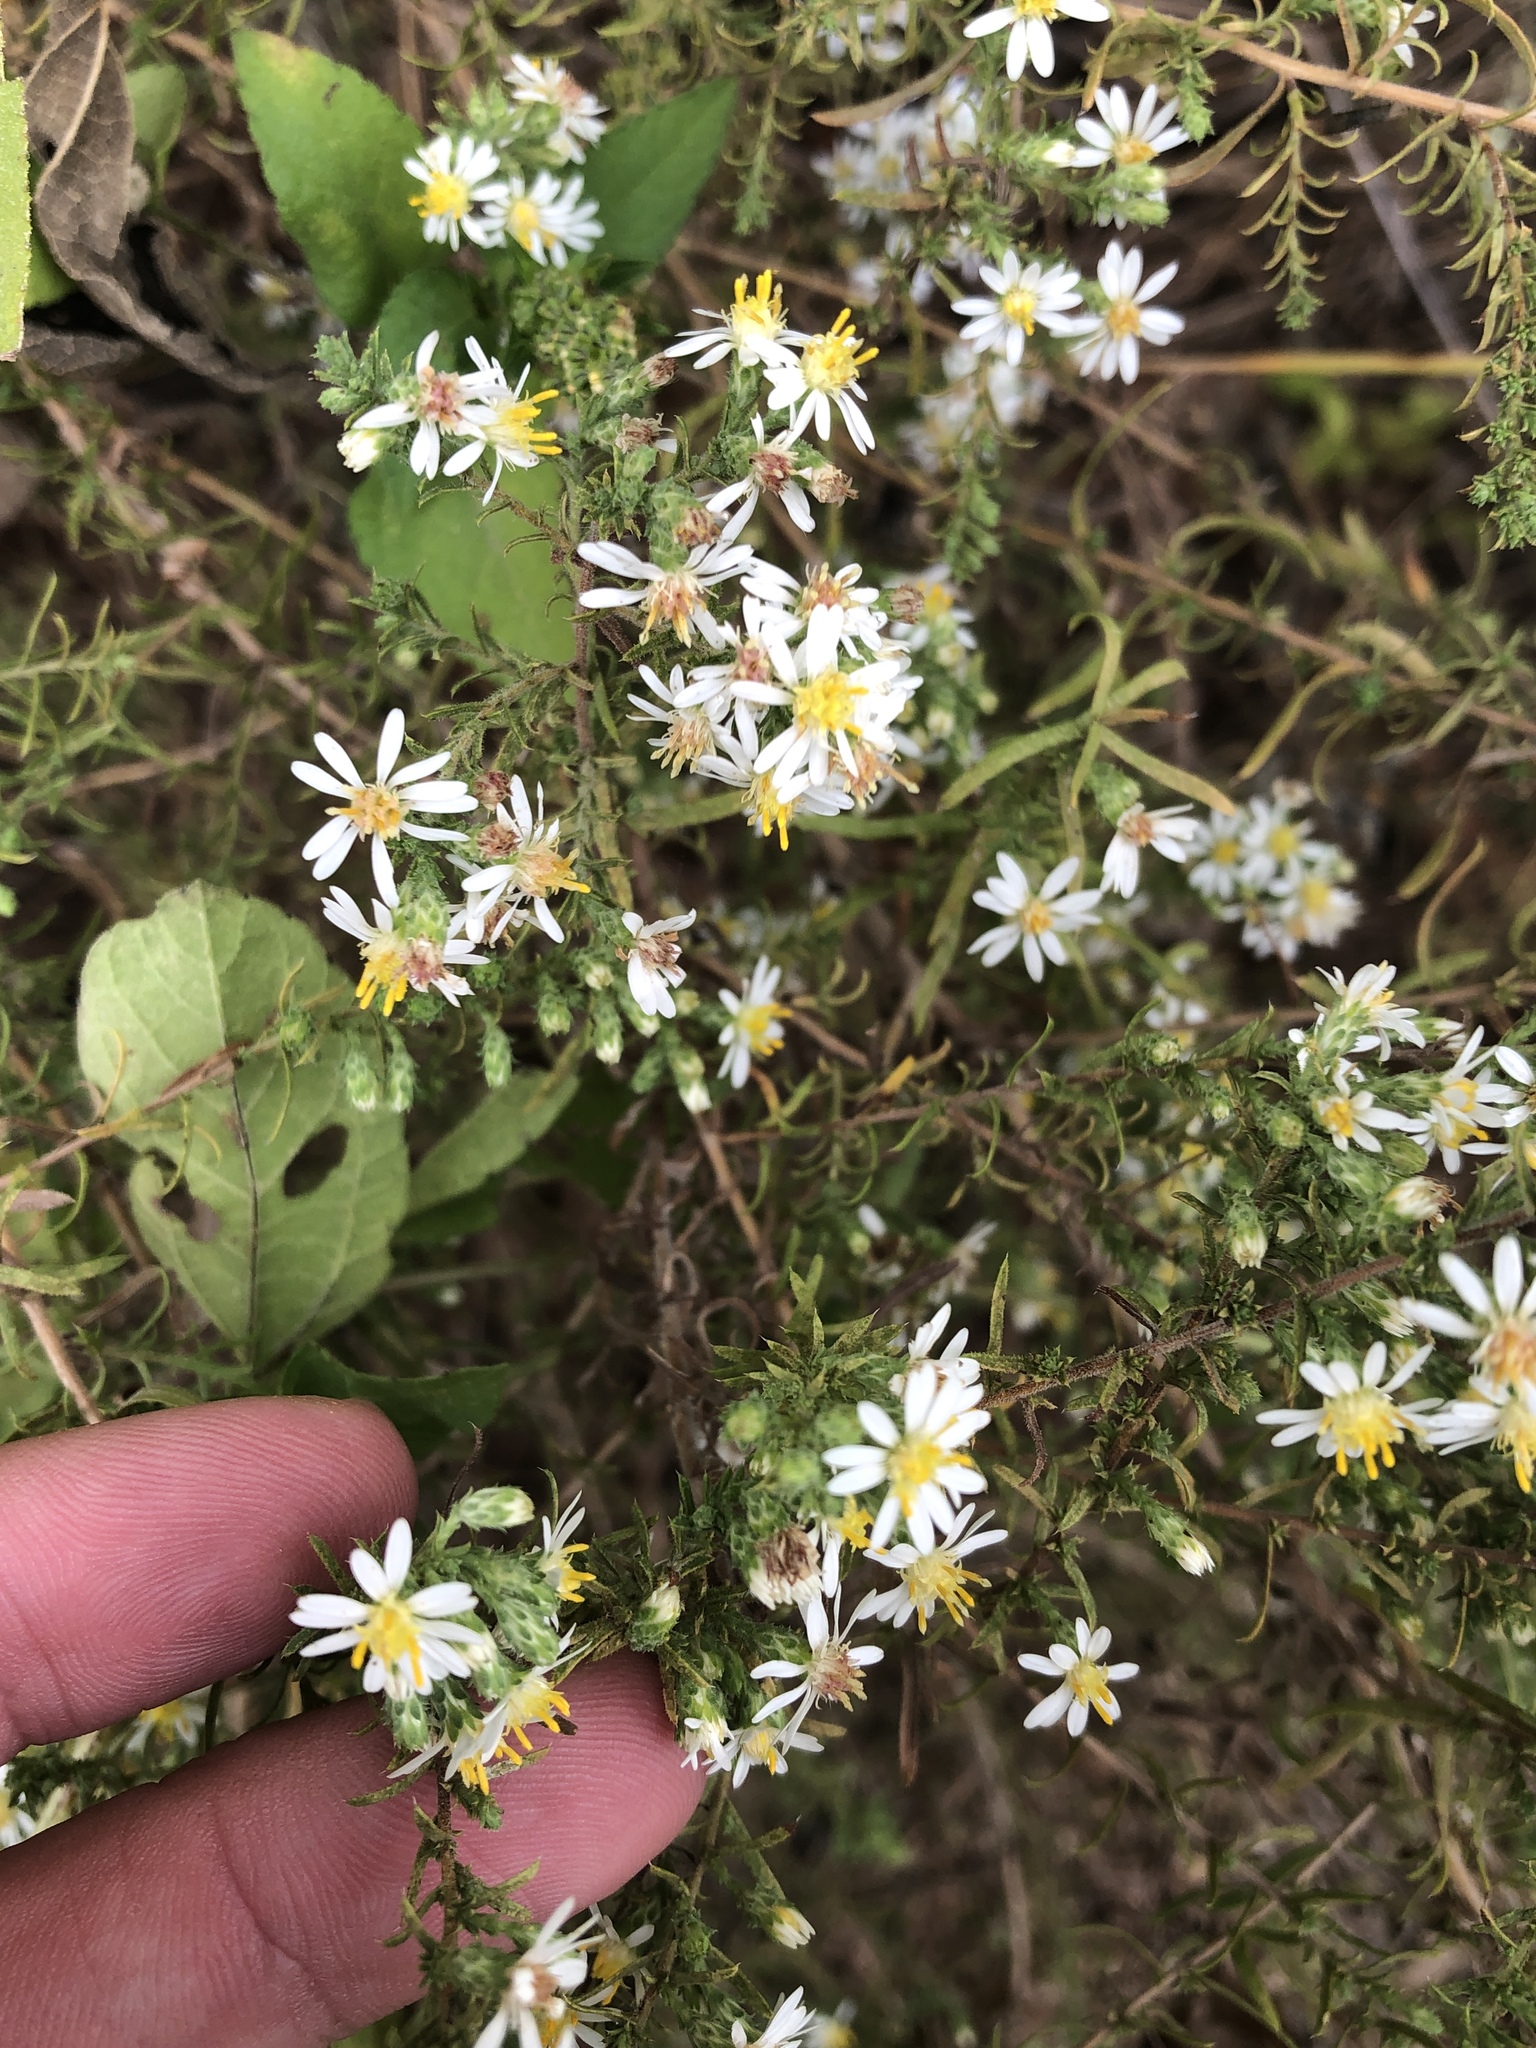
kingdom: Plantae
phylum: Tracheophyta
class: Magnoliopsida
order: Asterales
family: Asteraceae
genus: Symphyotrichum
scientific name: Symphyotrichum ericoides
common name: Heath aster
